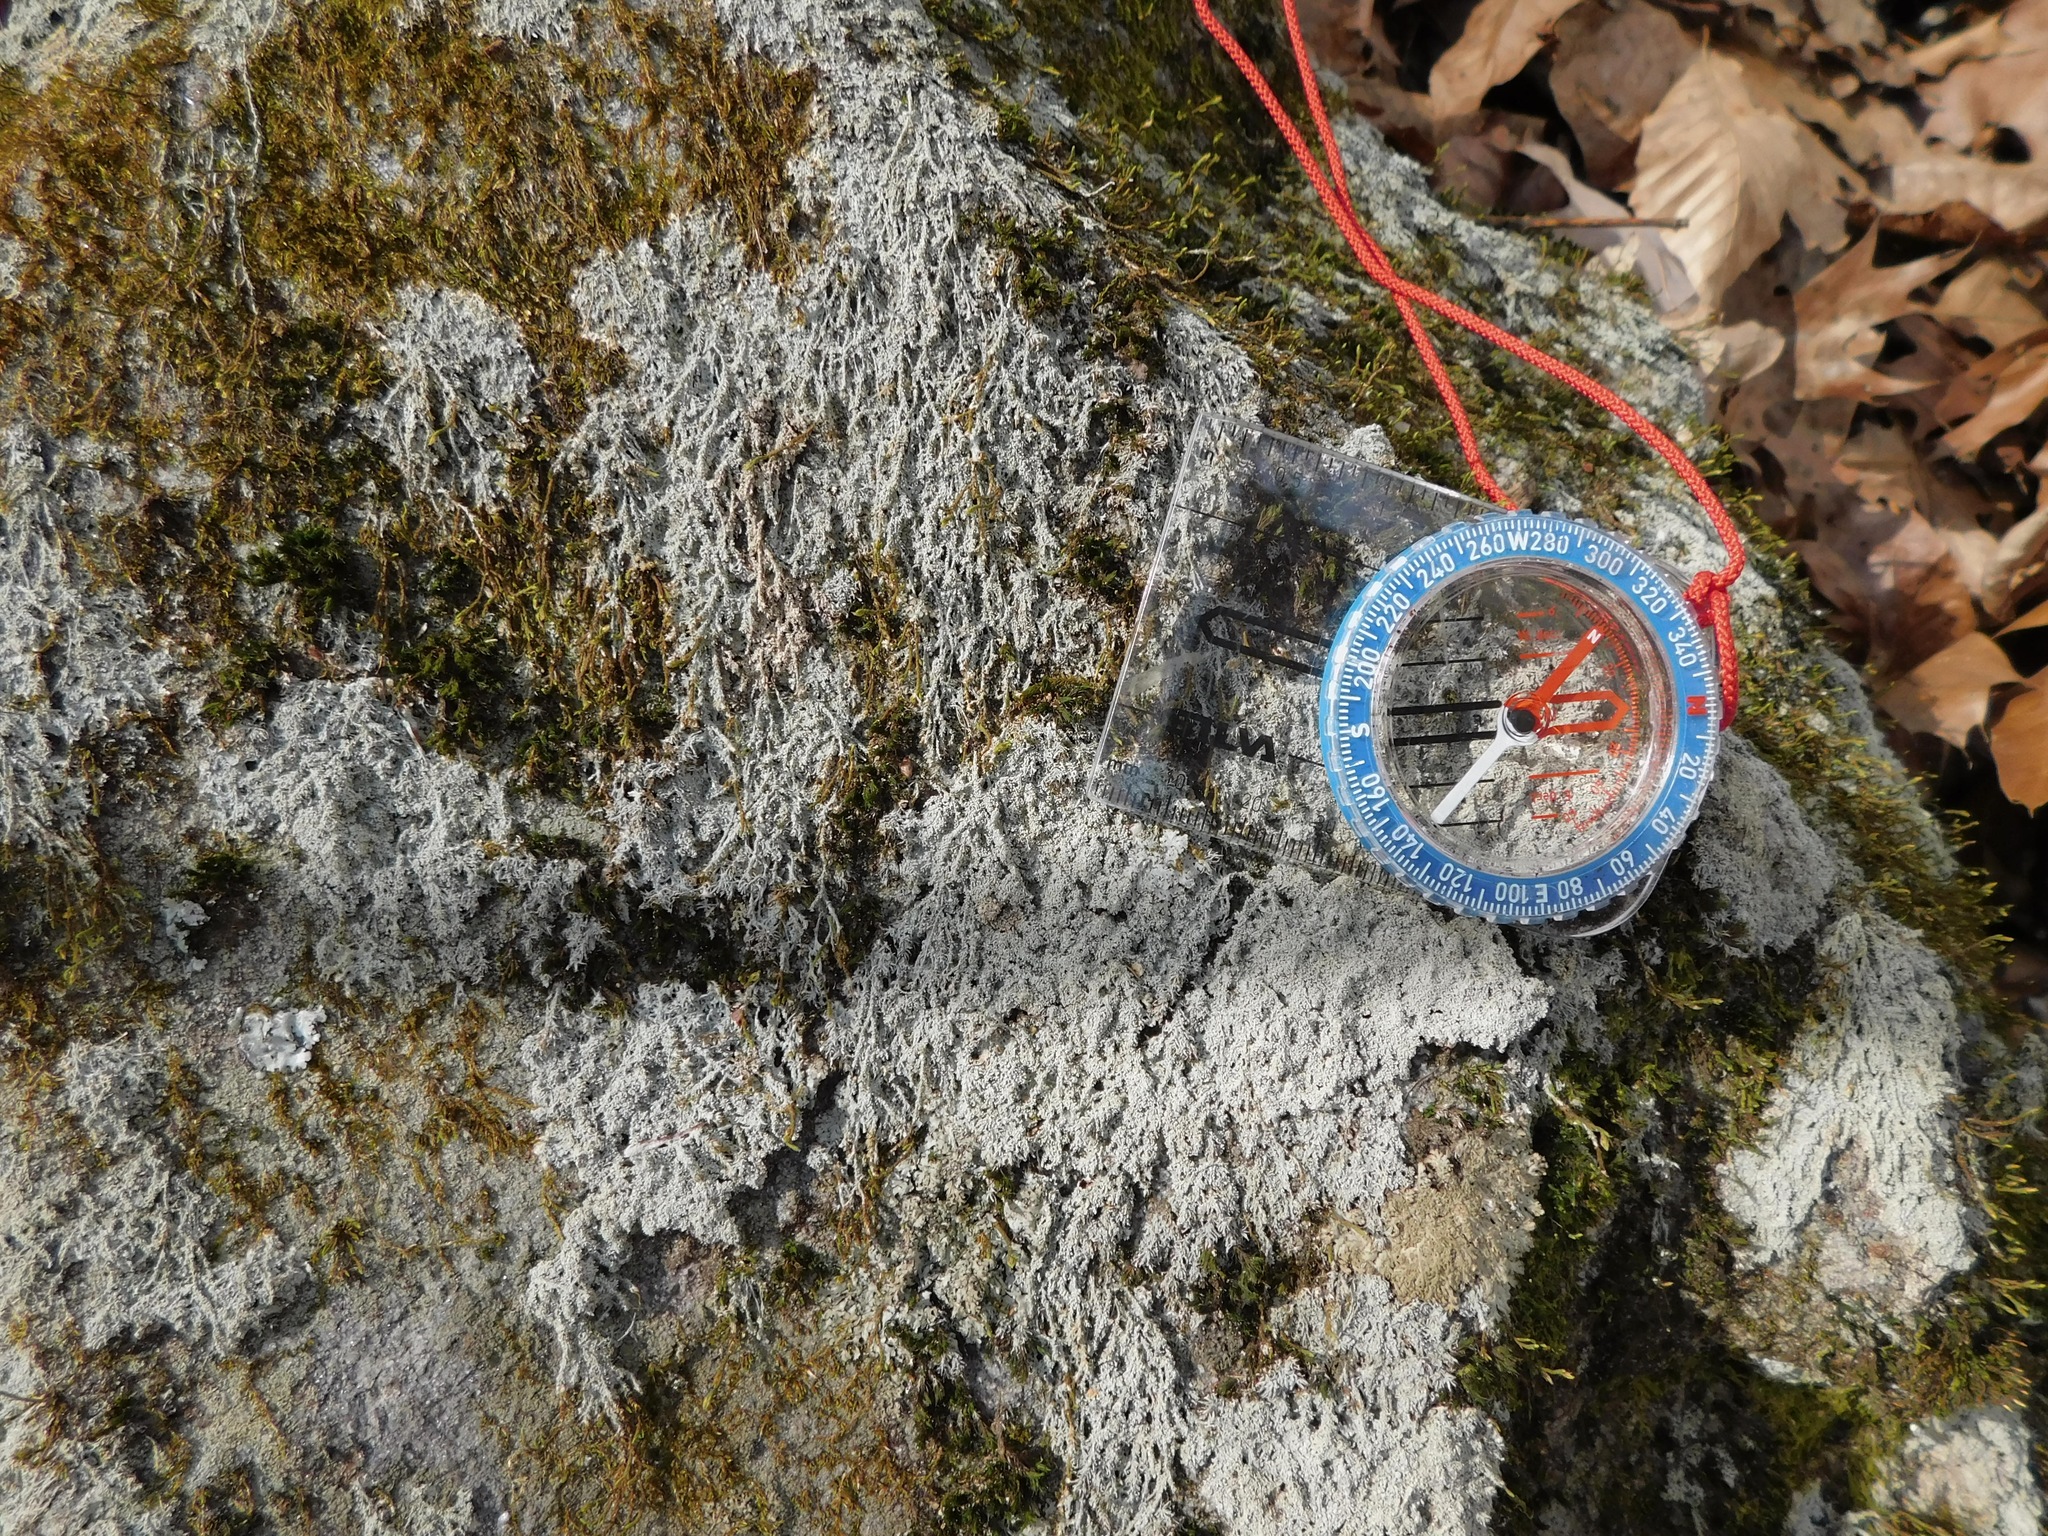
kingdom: Fungi
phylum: Ascomycota
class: Lecanoromycetes
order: Pertusariales
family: Ochrolechiaceae
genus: Ochrolechia
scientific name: Ochrolechia yasudae
